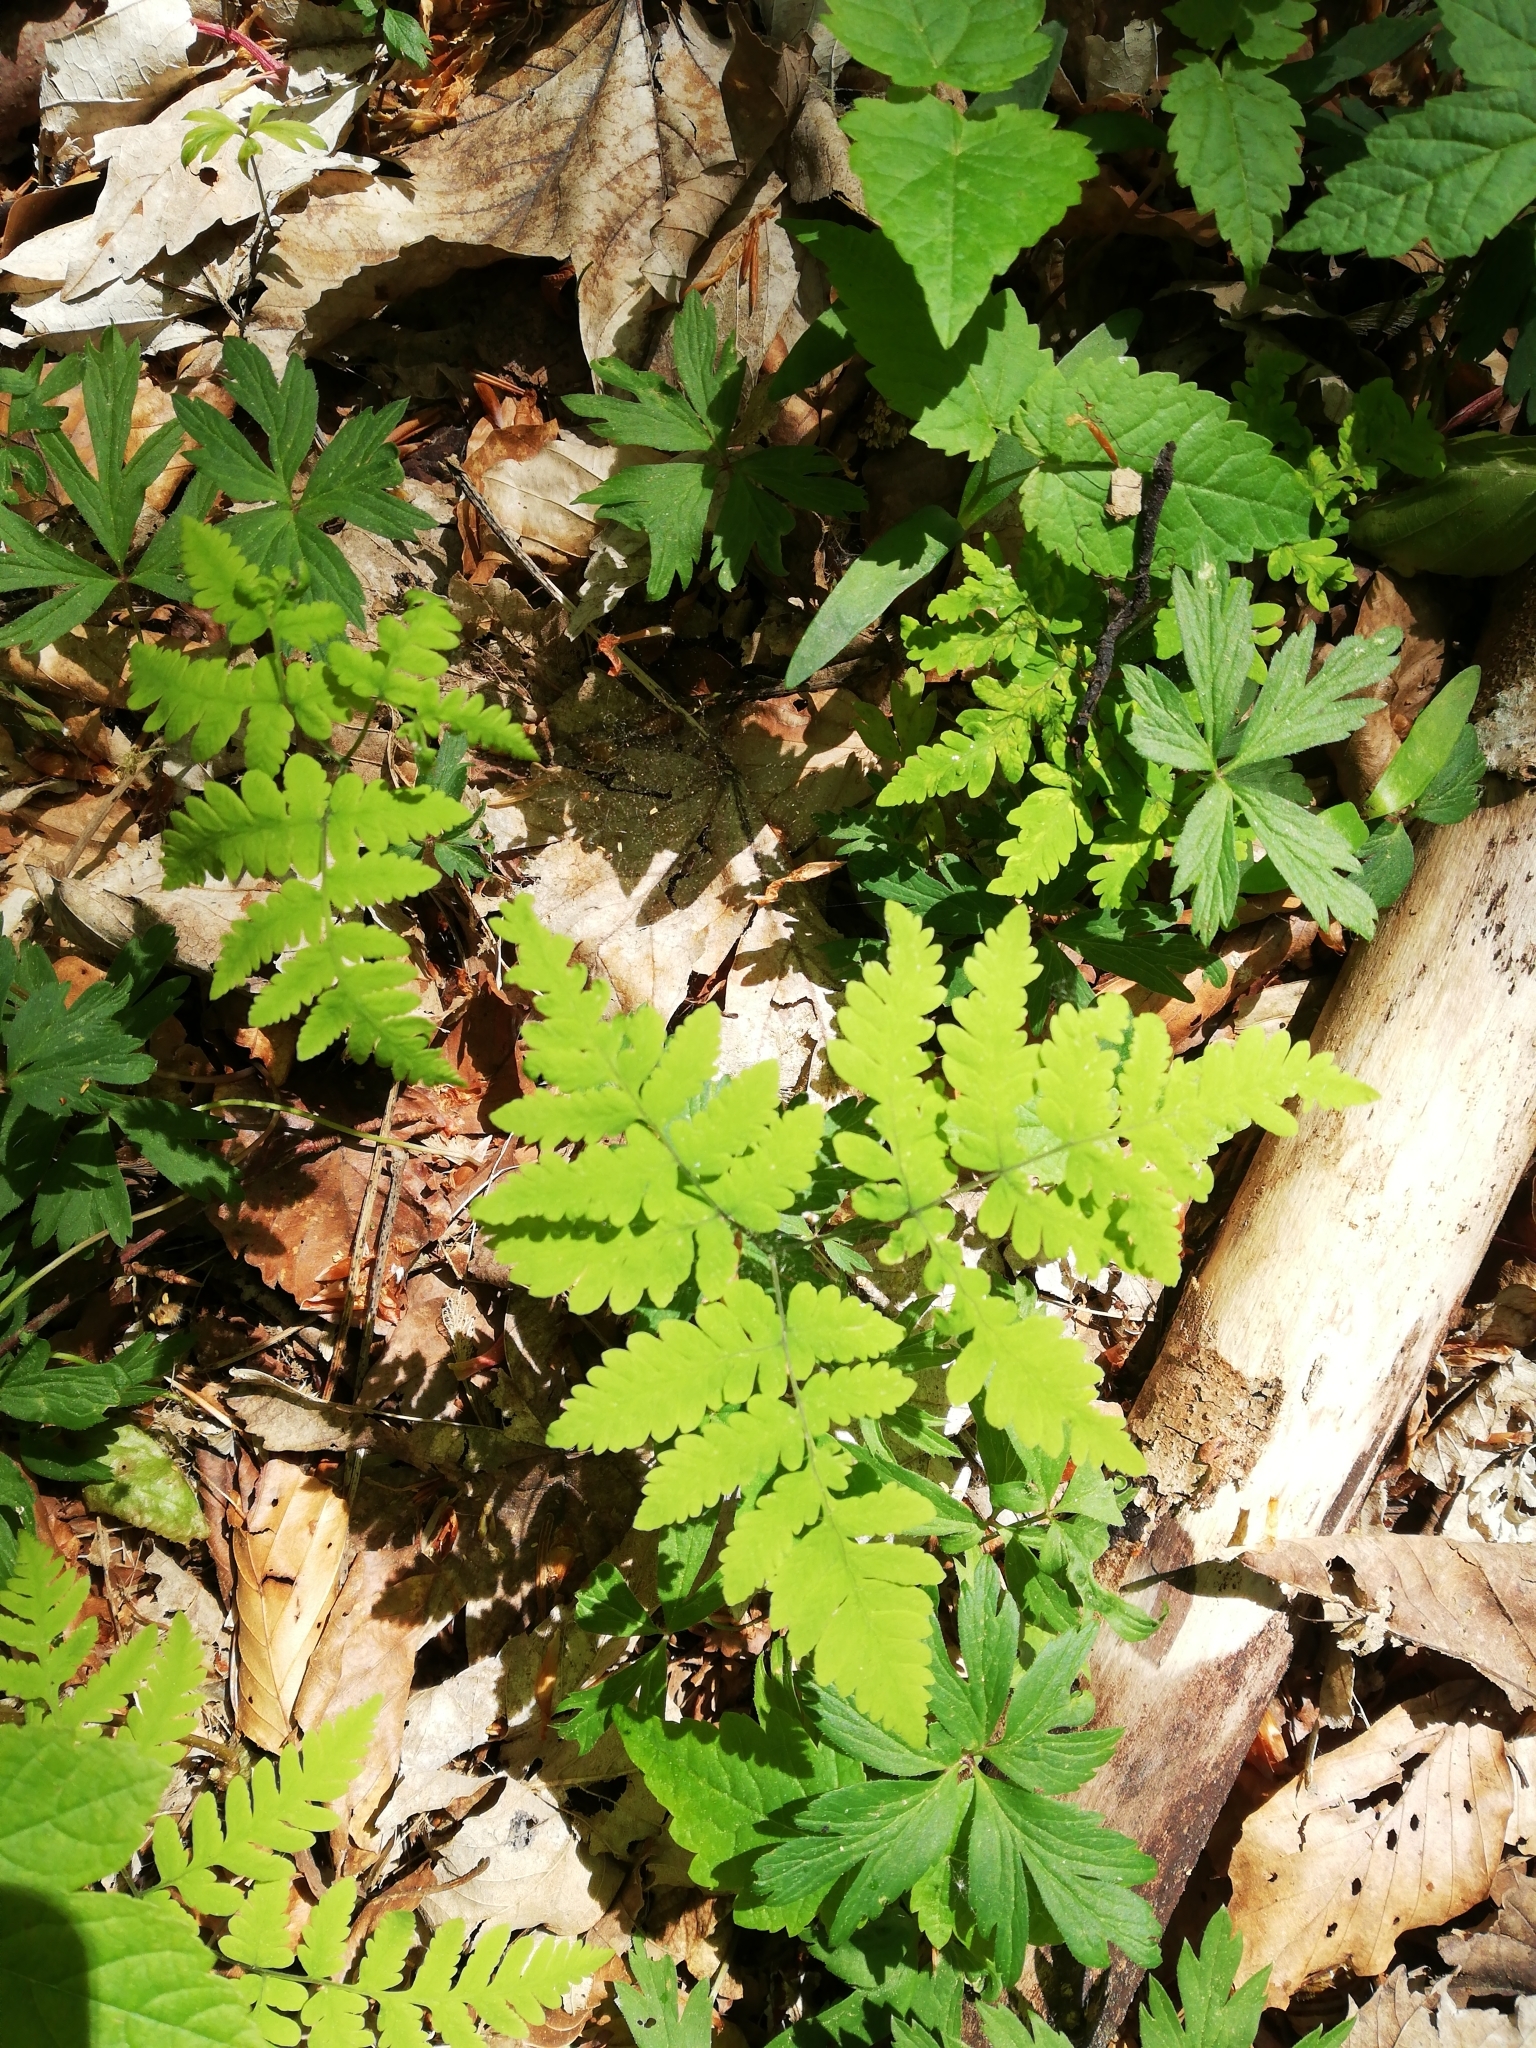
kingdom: Plantae
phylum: Tracheophyta
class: Polypodiopsida
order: Polypodiales
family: Cystopteridaceae
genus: Gymnocarpium
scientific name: Gymnocarpium dryopteris
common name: Oak fern
